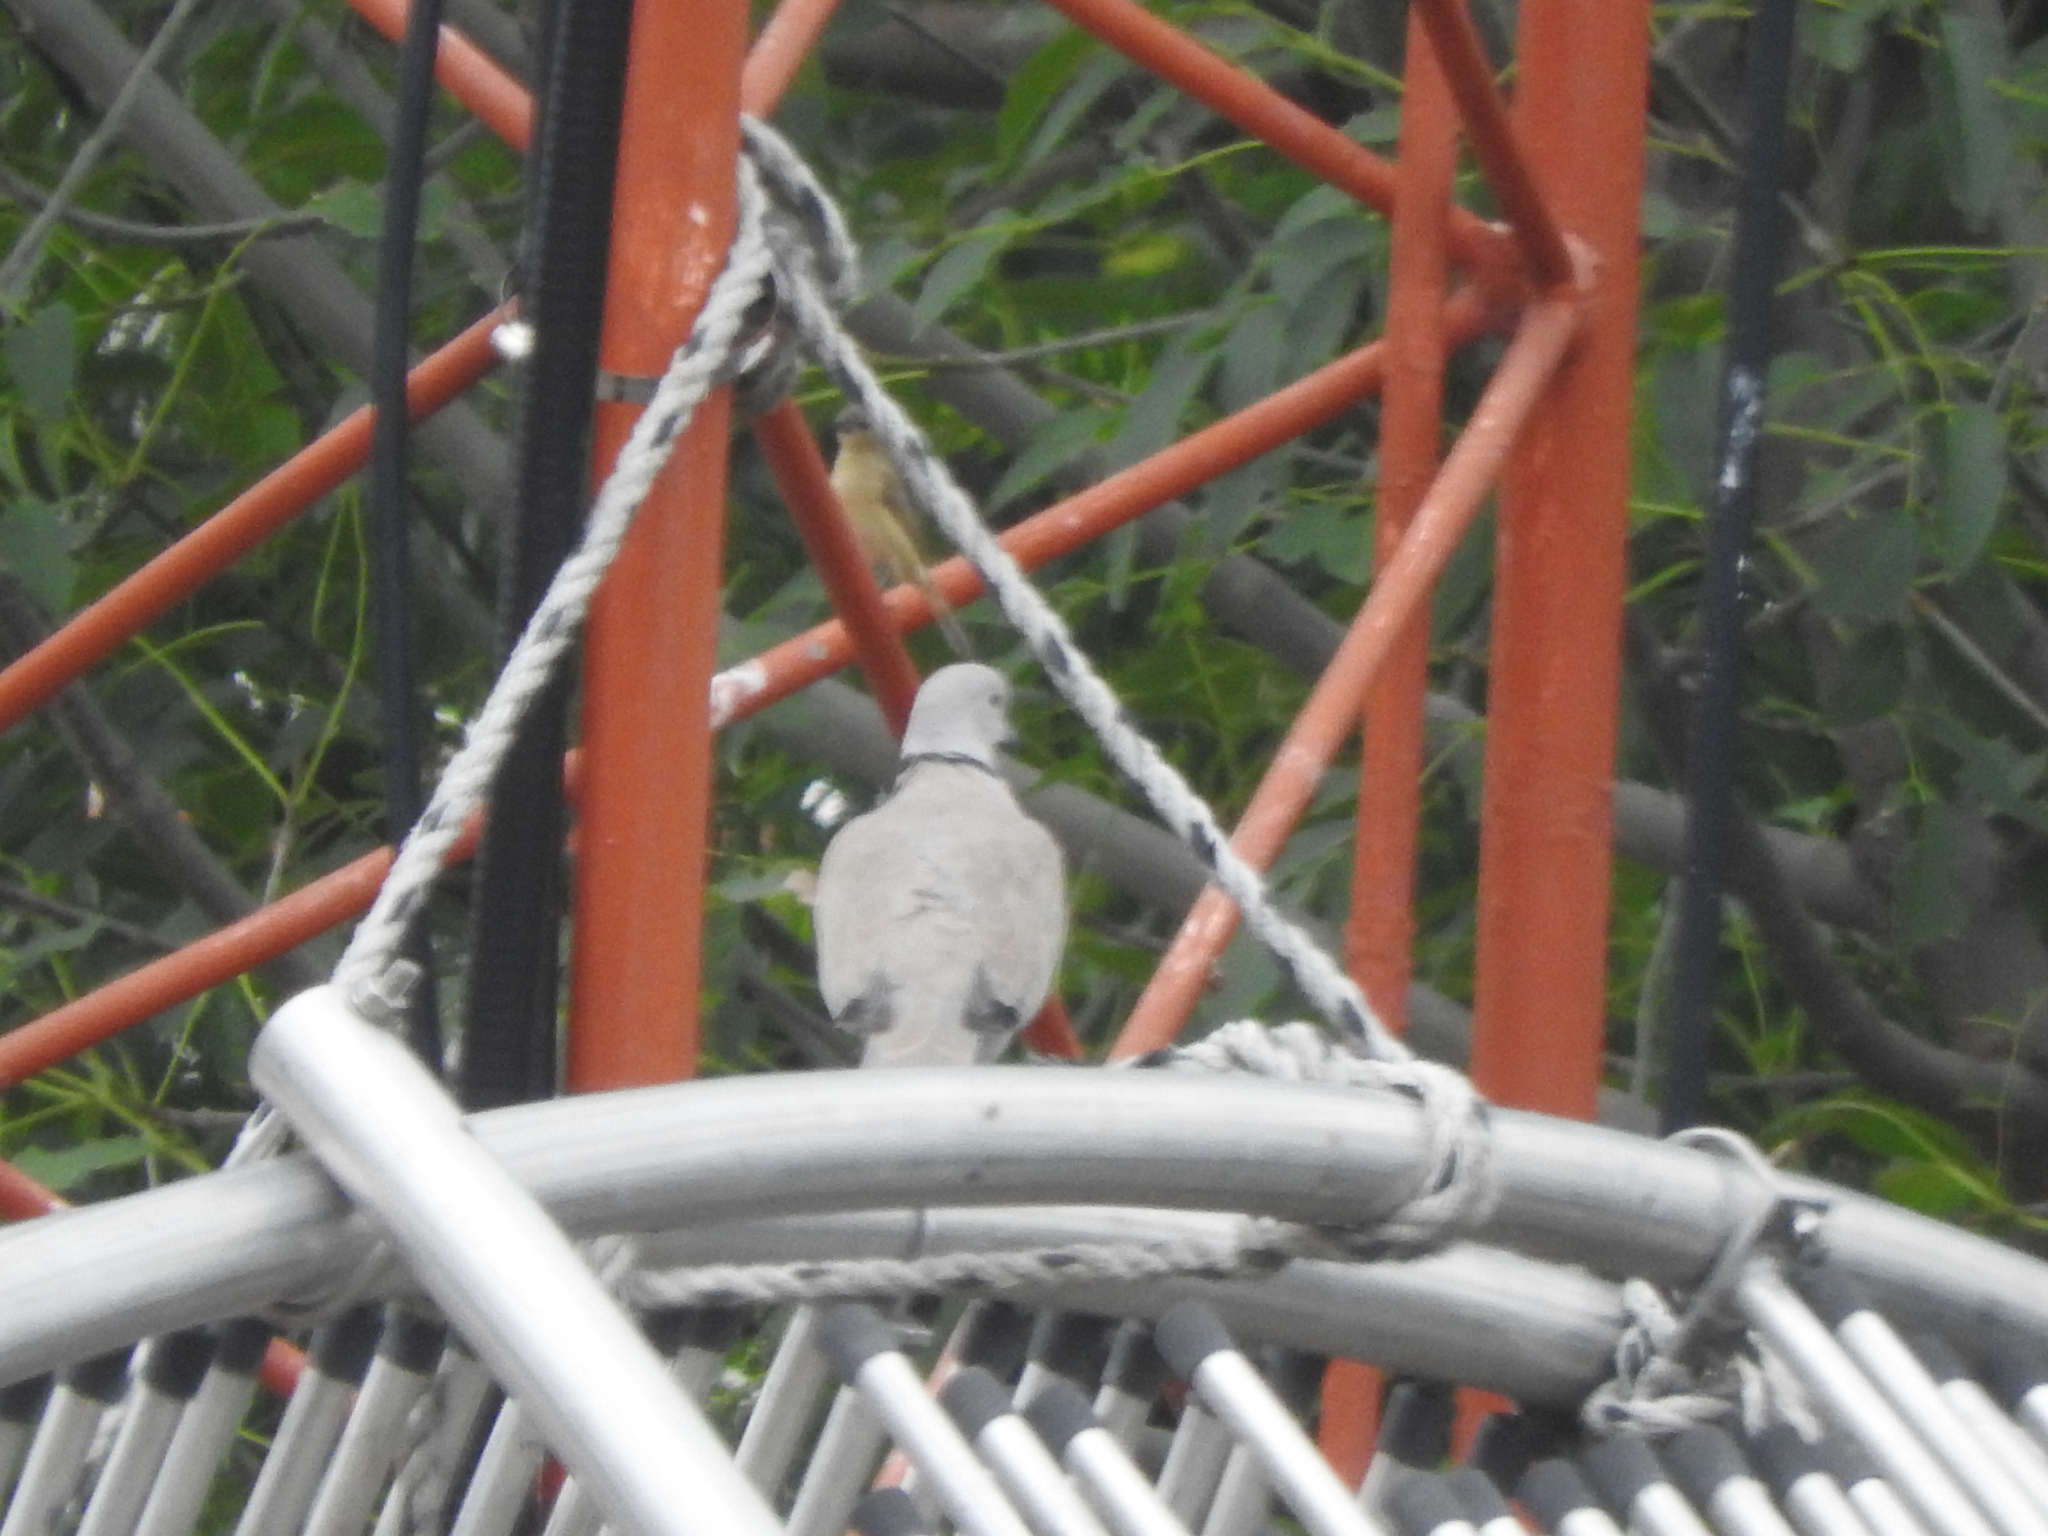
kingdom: Animalia
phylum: Chordata
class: Aves
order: Columbiformes
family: Columbidae
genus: Streptopelia
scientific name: Streptopelia decaocto
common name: Eurasian collared dove
